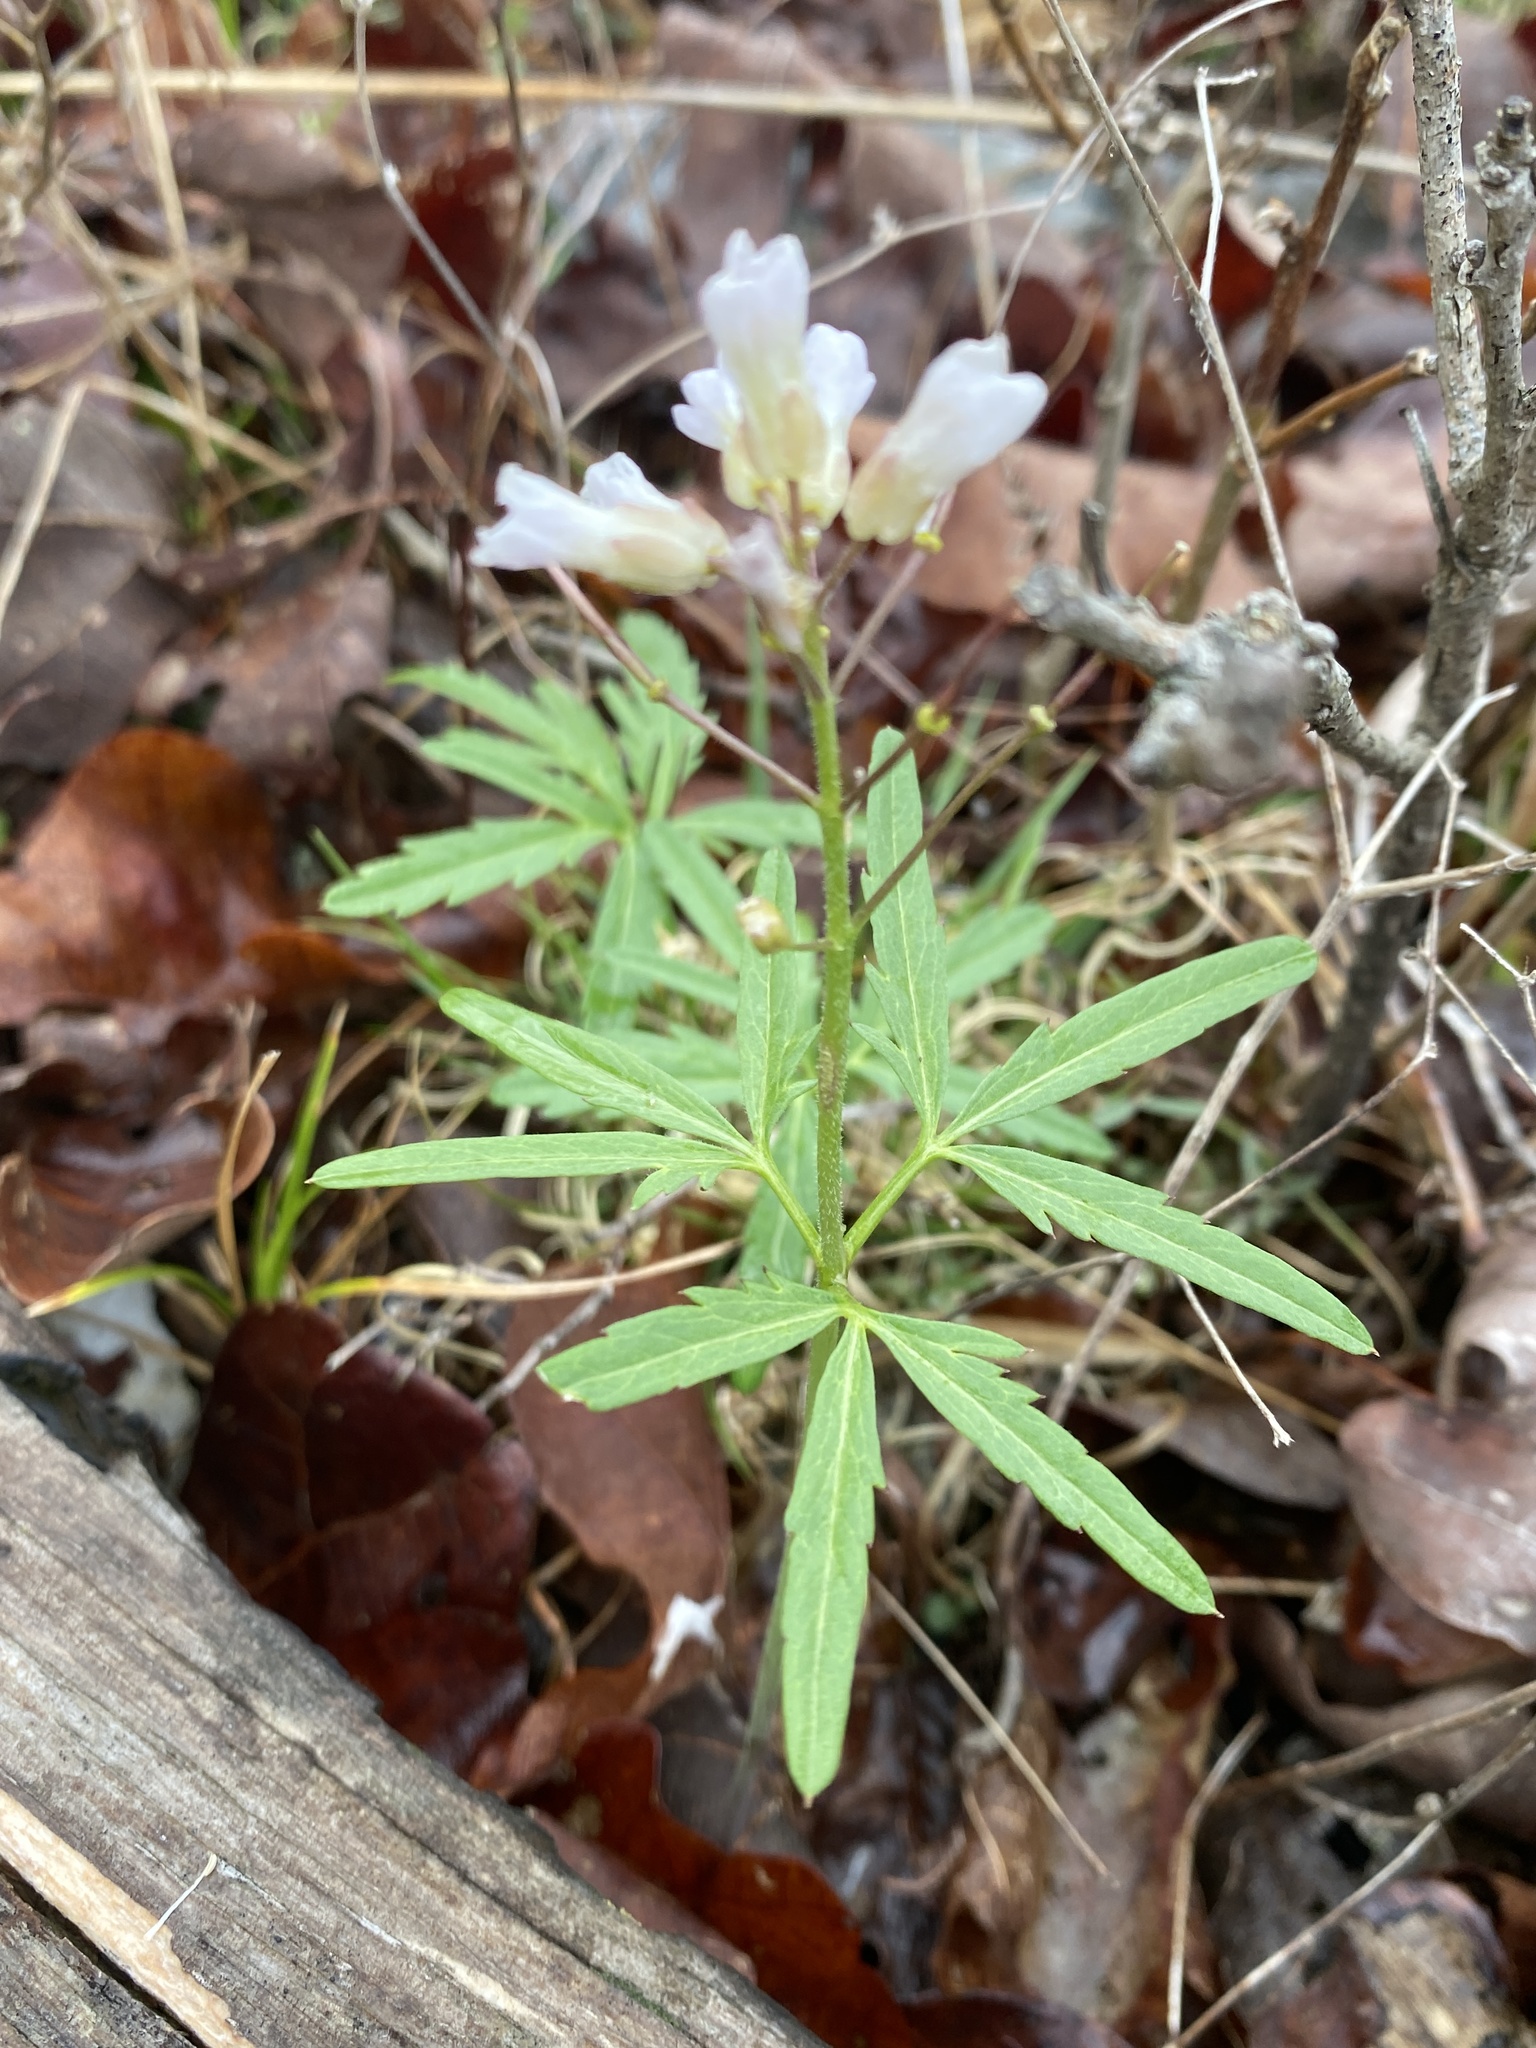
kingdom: Plantae
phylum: Tracheophyta
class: Magnoliopsida
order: Brassicales
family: Brassicaceae
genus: Cardamine
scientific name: Cardamine concatenata
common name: Cut-leaf toothcup
